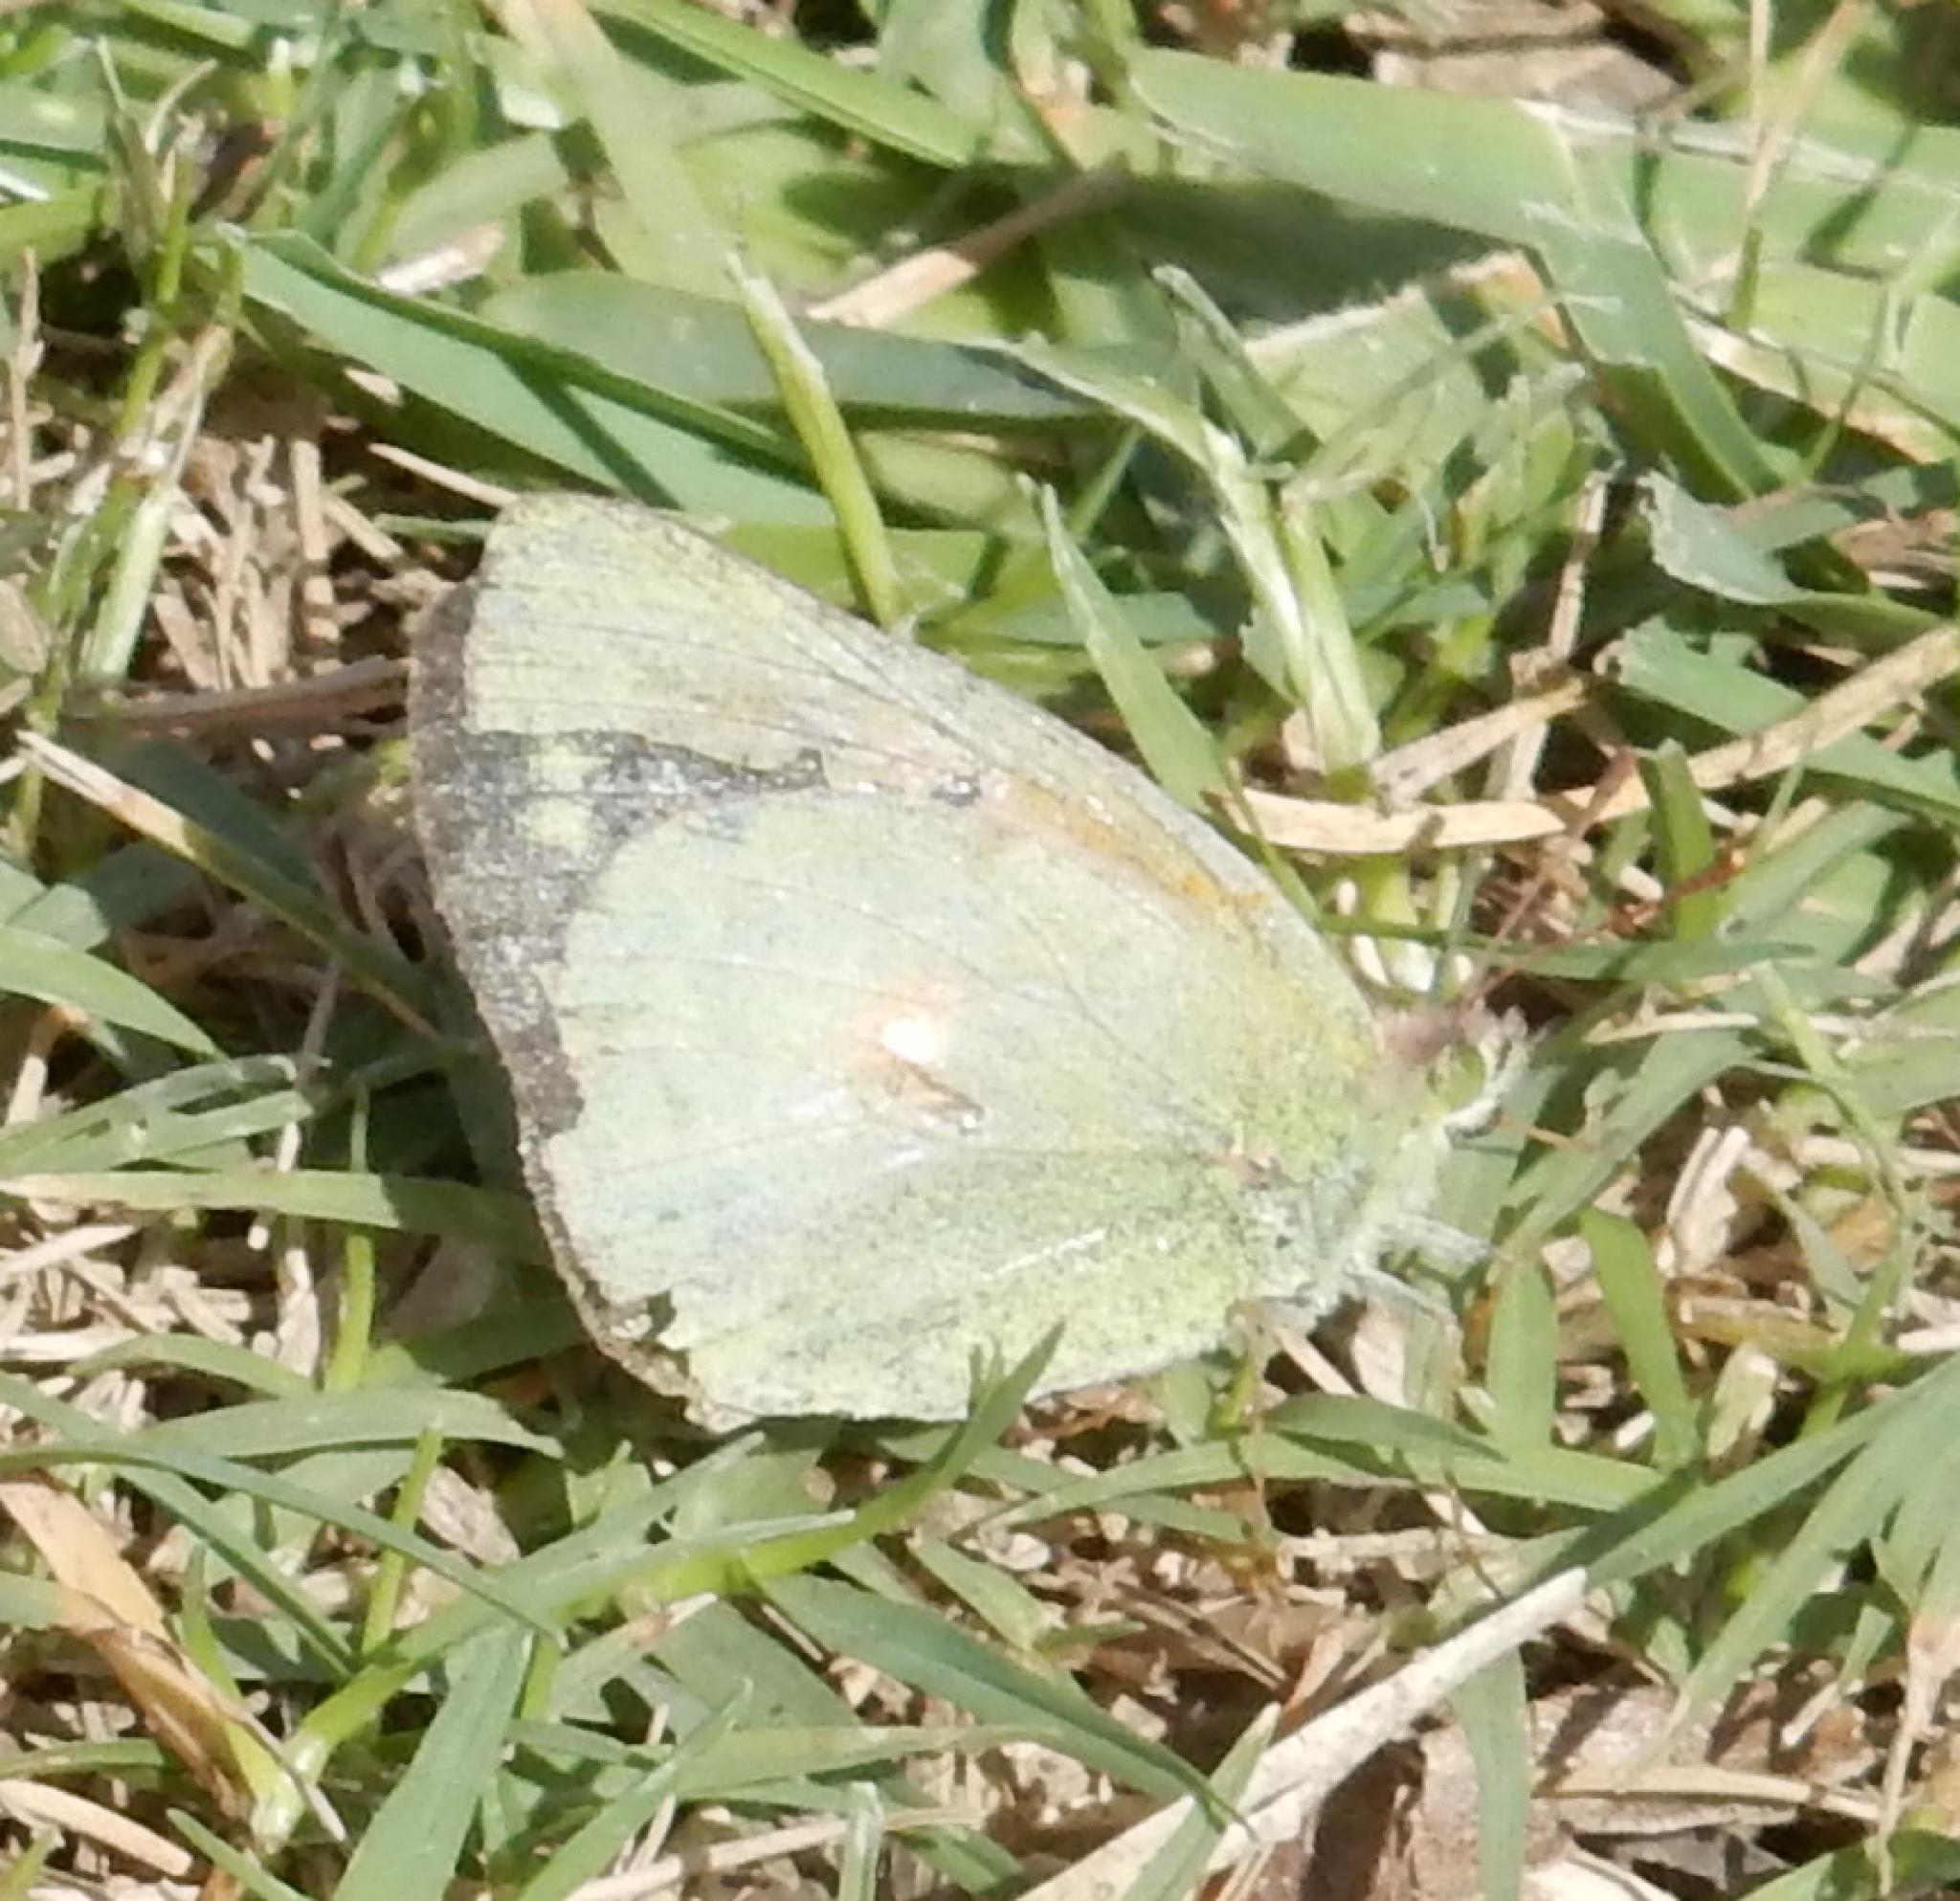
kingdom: Animalia
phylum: Arthropoda
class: Insecta
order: Lepidoptera
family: Pieridae
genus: Colias
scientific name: Colias electo
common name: African clouded yellow
